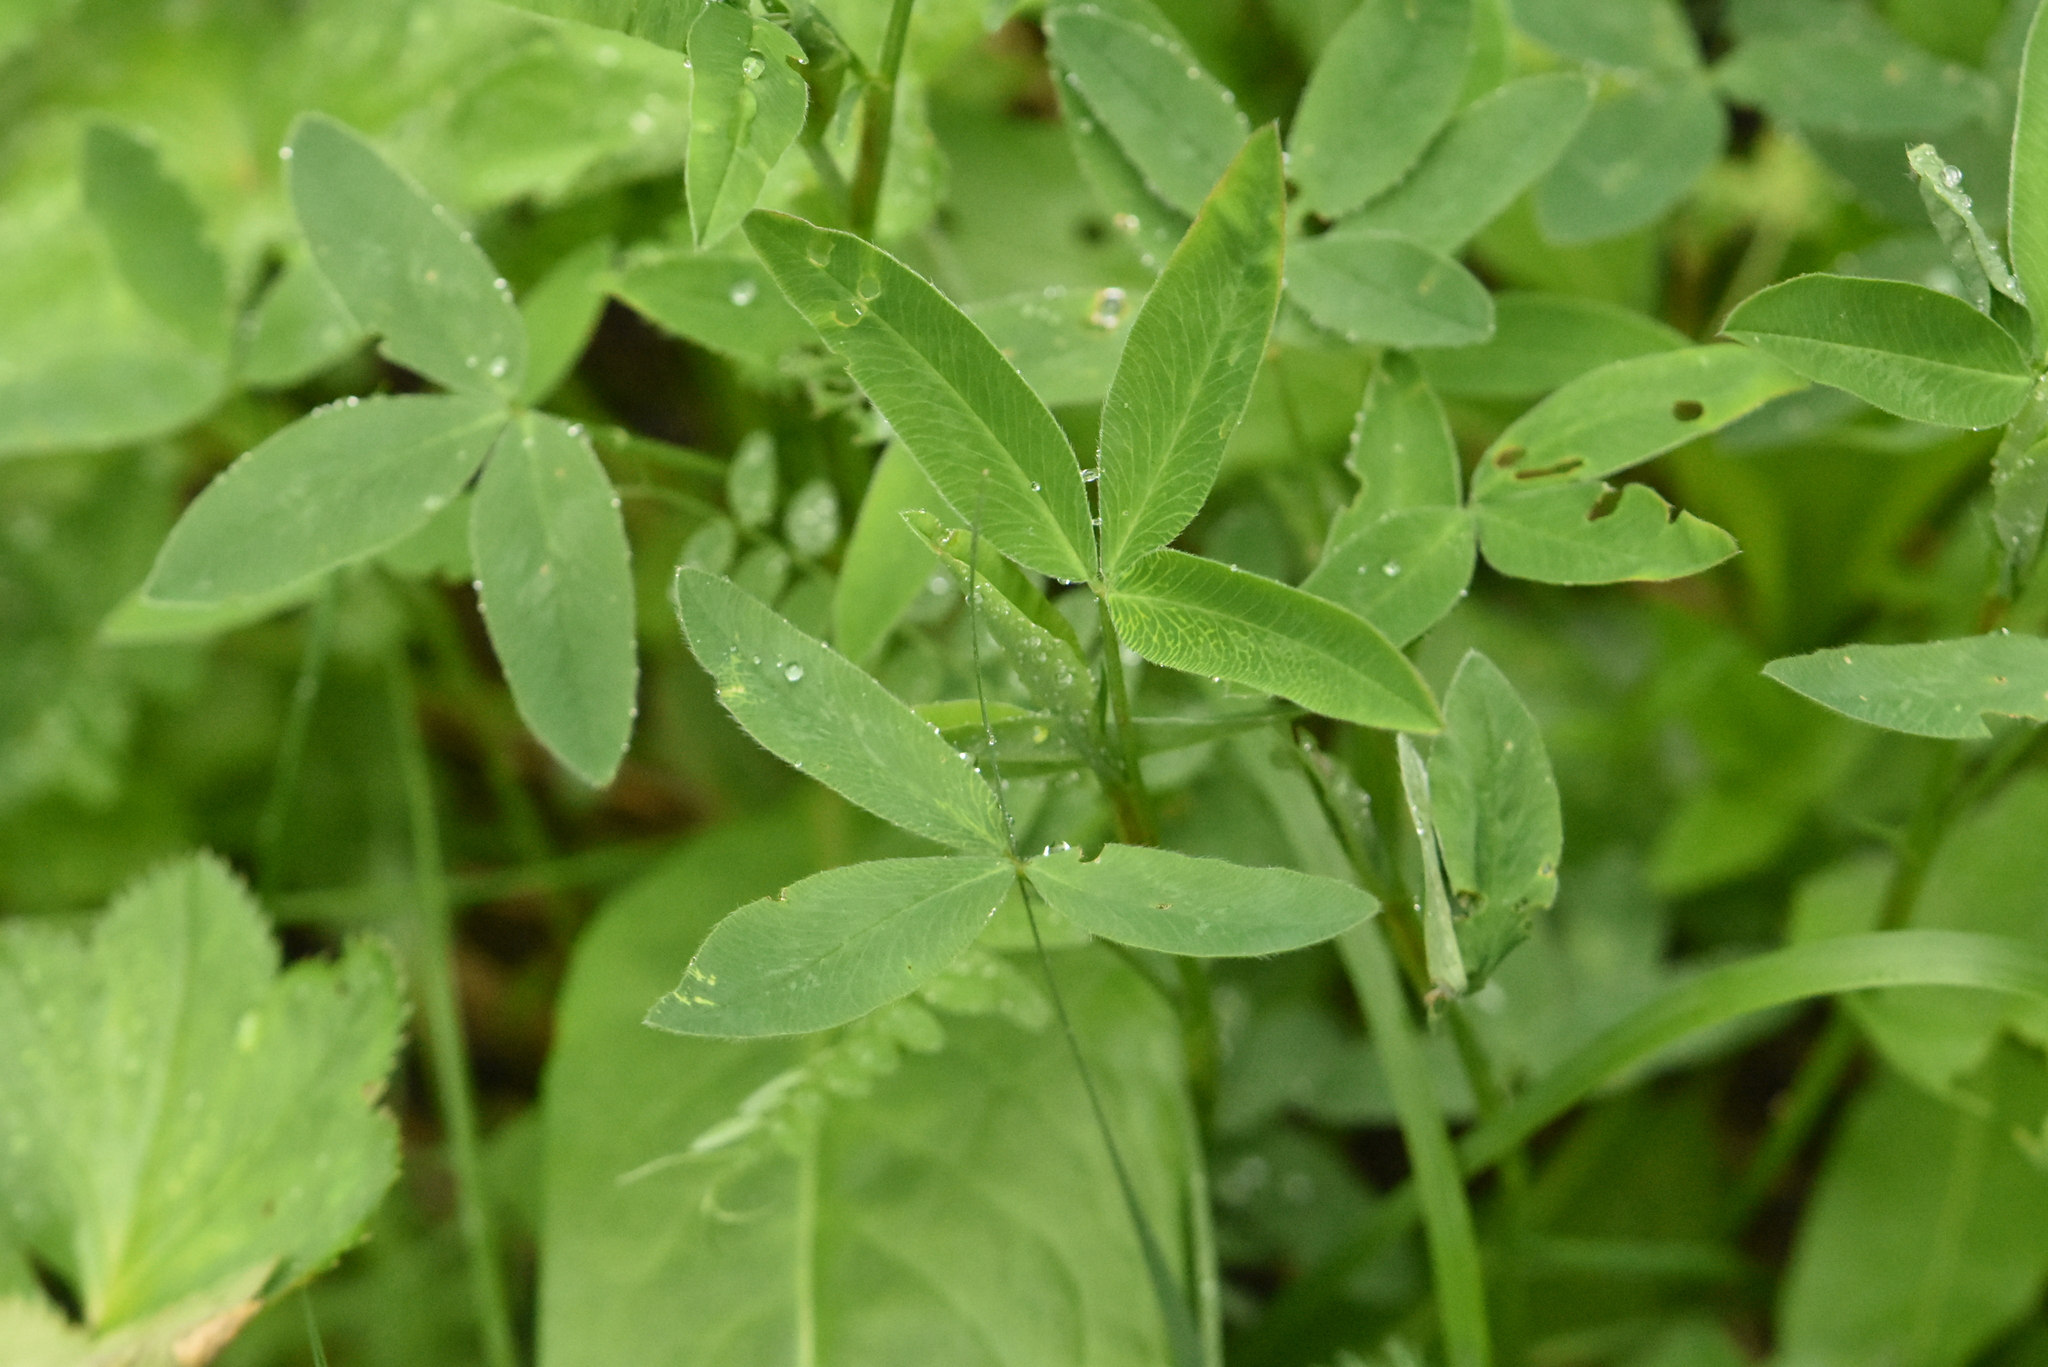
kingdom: Plantae
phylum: Tracheophyta
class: Magnoliopsida
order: Fabales
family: Fabaceae
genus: Trifolium
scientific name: Trifolium medium
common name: Zigzag clover
